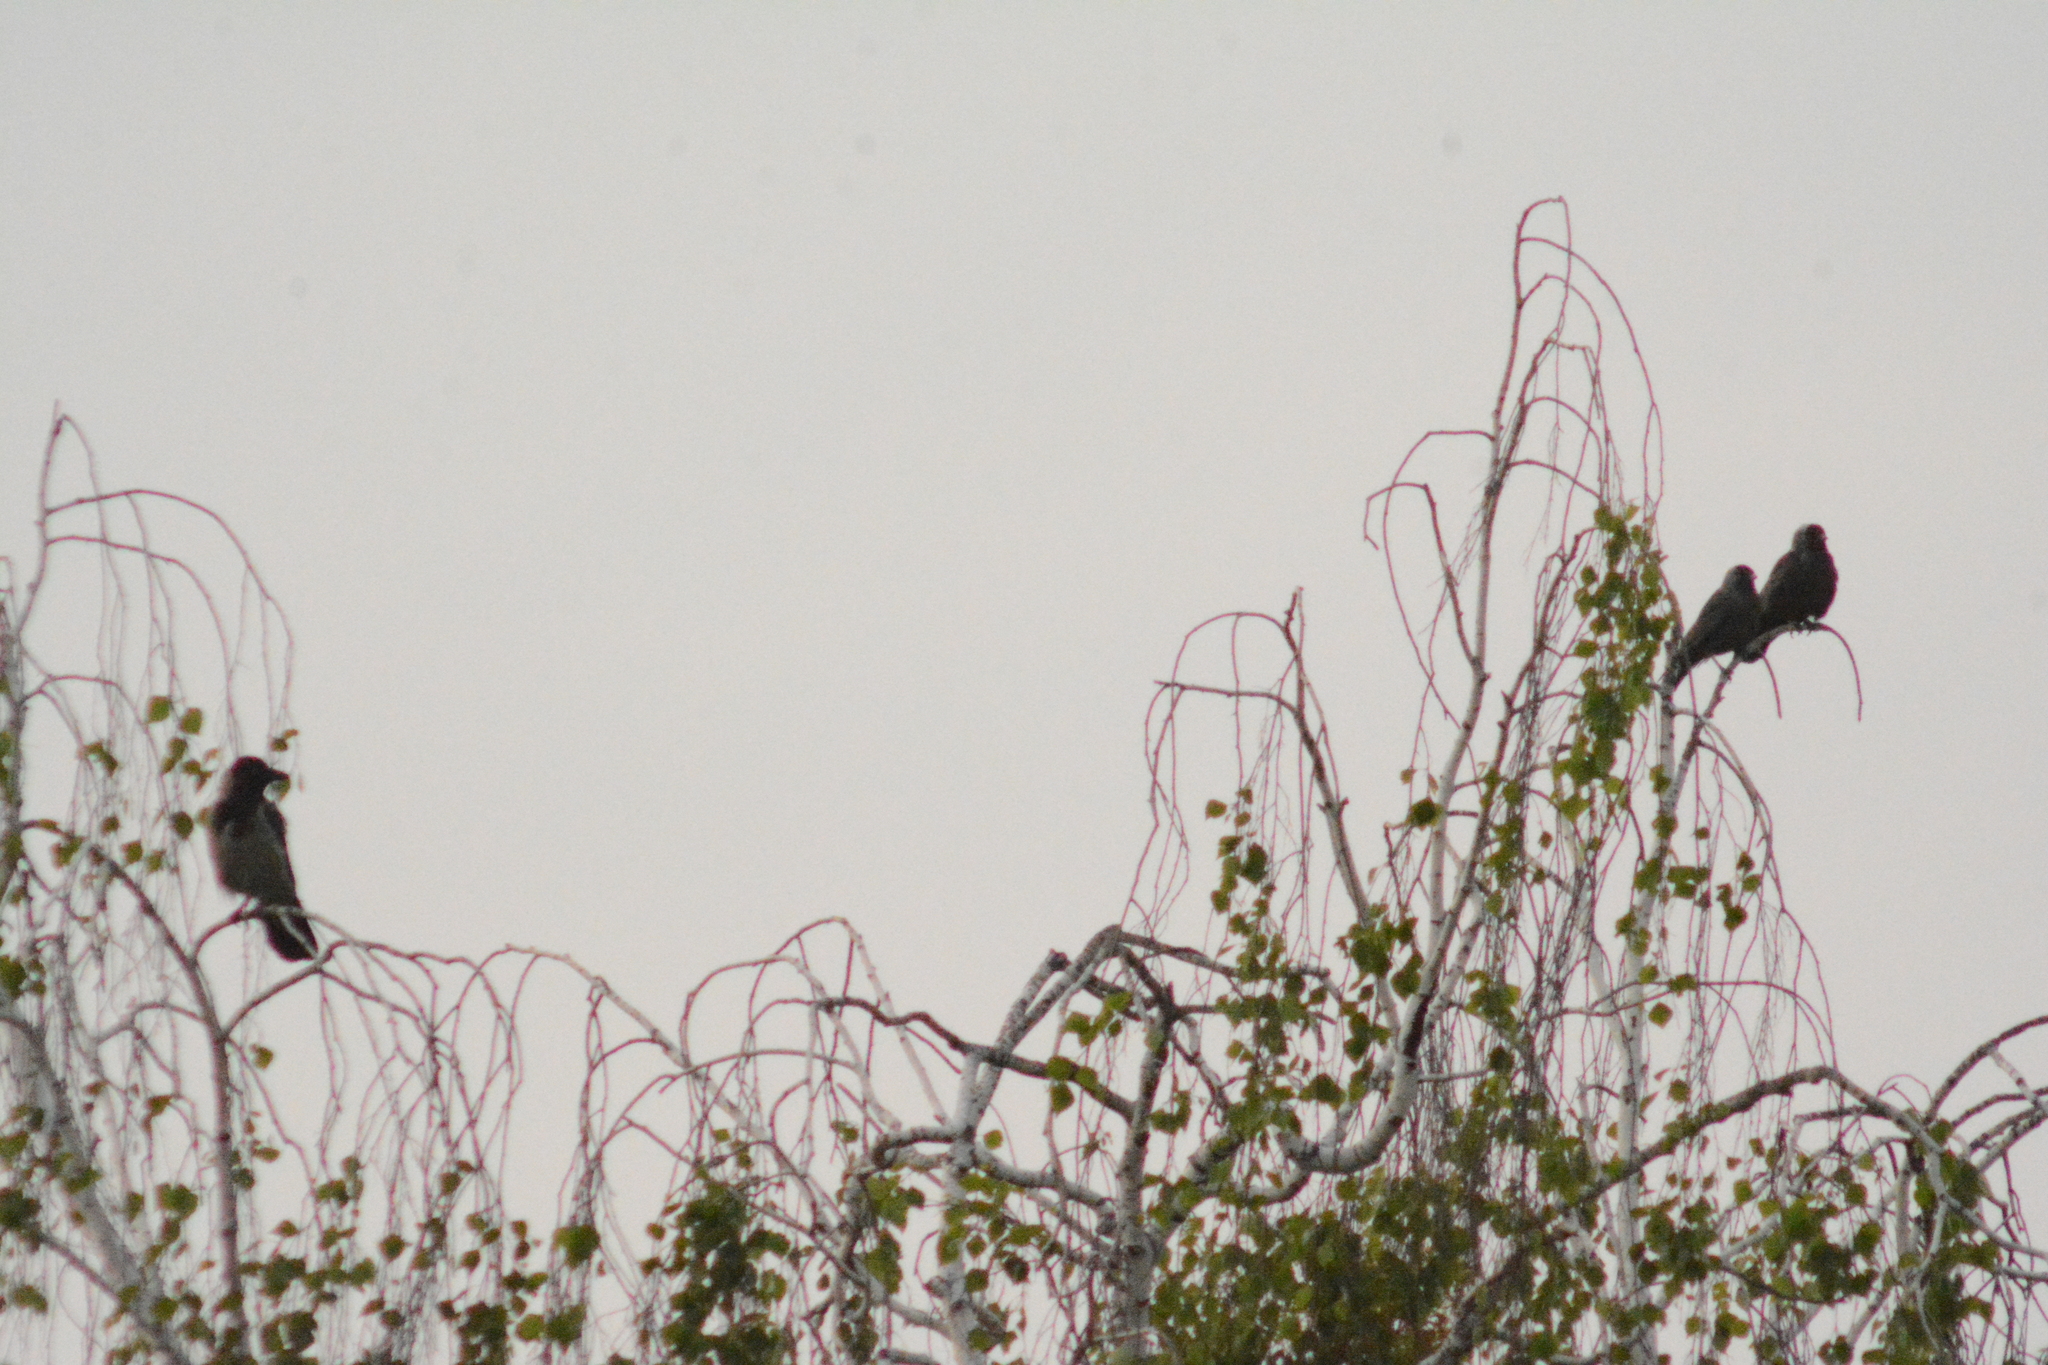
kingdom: Animalia
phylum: Chordata
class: Aves
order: Passeriformes
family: Corvidae
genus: Coloeus
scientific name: Coloeus monedula
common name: Western jackdaw
